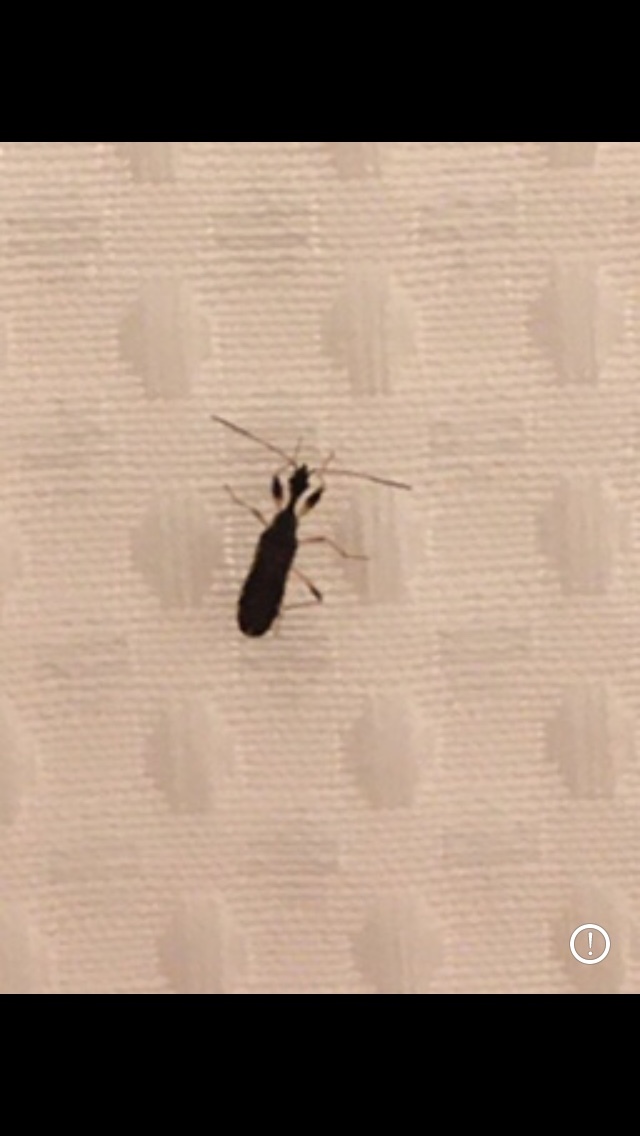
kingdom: Animalia
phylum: Arthropoda
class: Insecta
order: Hemiptera
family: Rhyparochromidae
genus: Myodocha
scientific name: Myodocha serripes
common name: Long-necked seed bug
